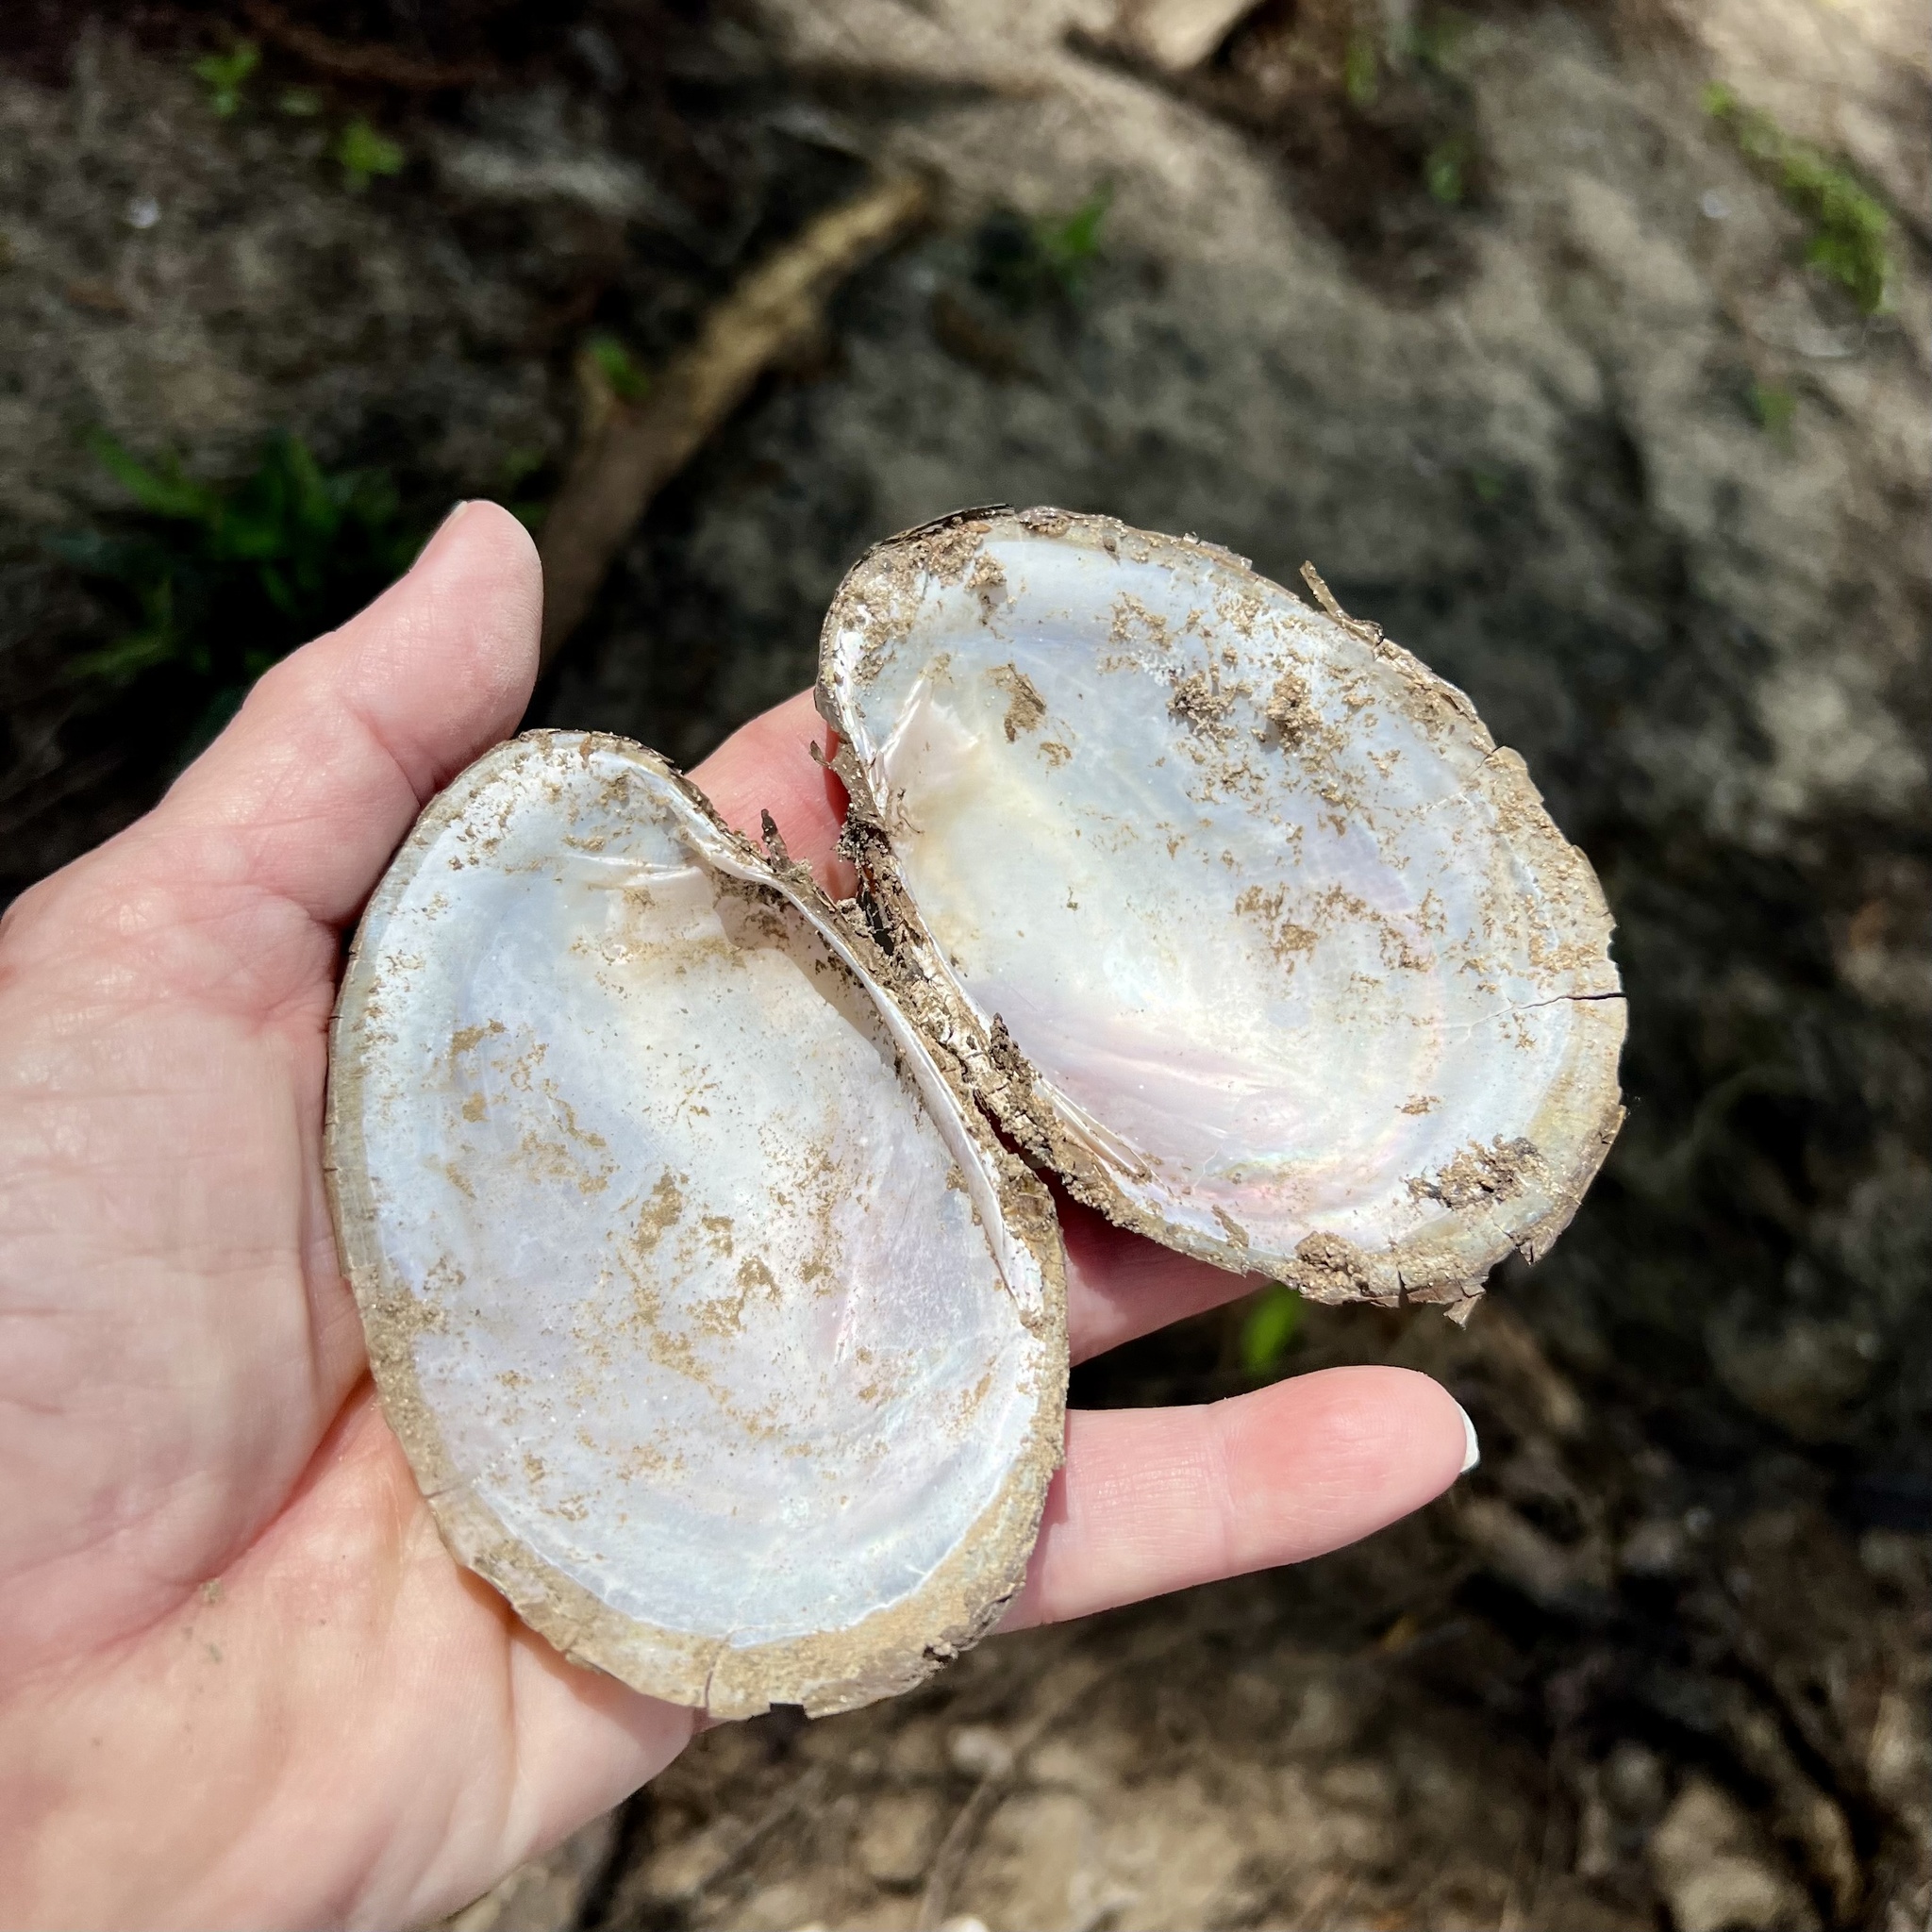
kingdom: Animalia
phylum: Mollusca
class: Bivalvia
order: Unionida
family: Unionidae
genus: Potamilus
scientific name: Potamilus fragilis
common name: Fragile papershell
